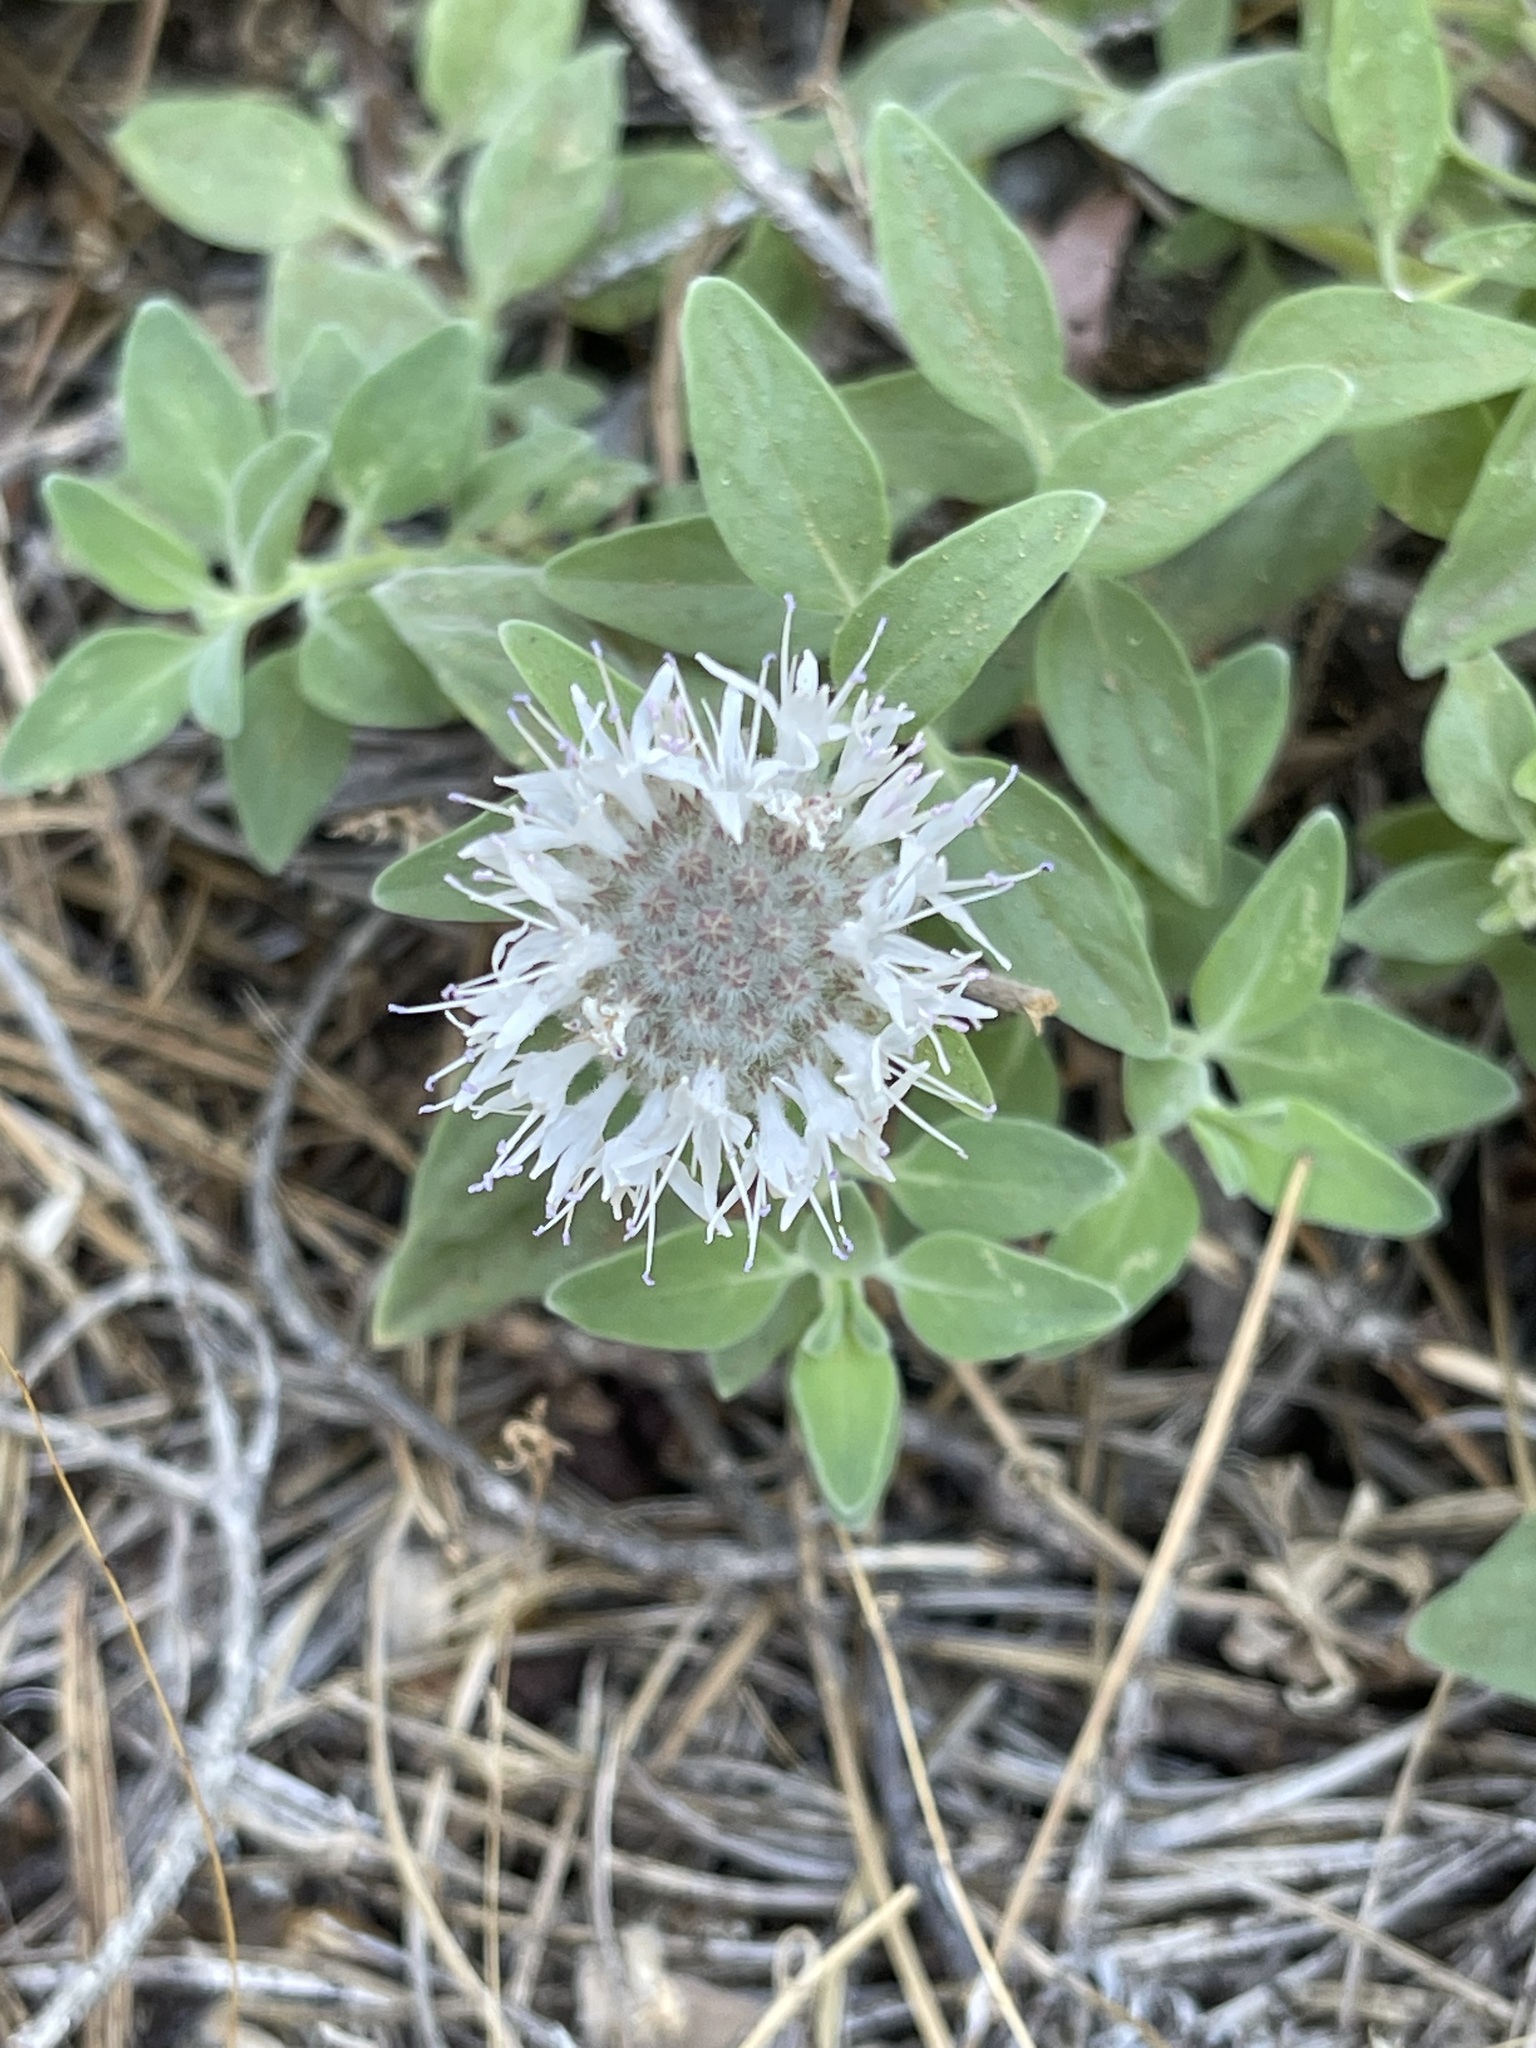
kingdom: Plantae
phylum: Tracheophyta
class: Magnoliopsida
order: Lamiales
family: Lamiaceae
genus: Monardella
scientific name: Monardella odoratissima
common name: Pacific monardella
